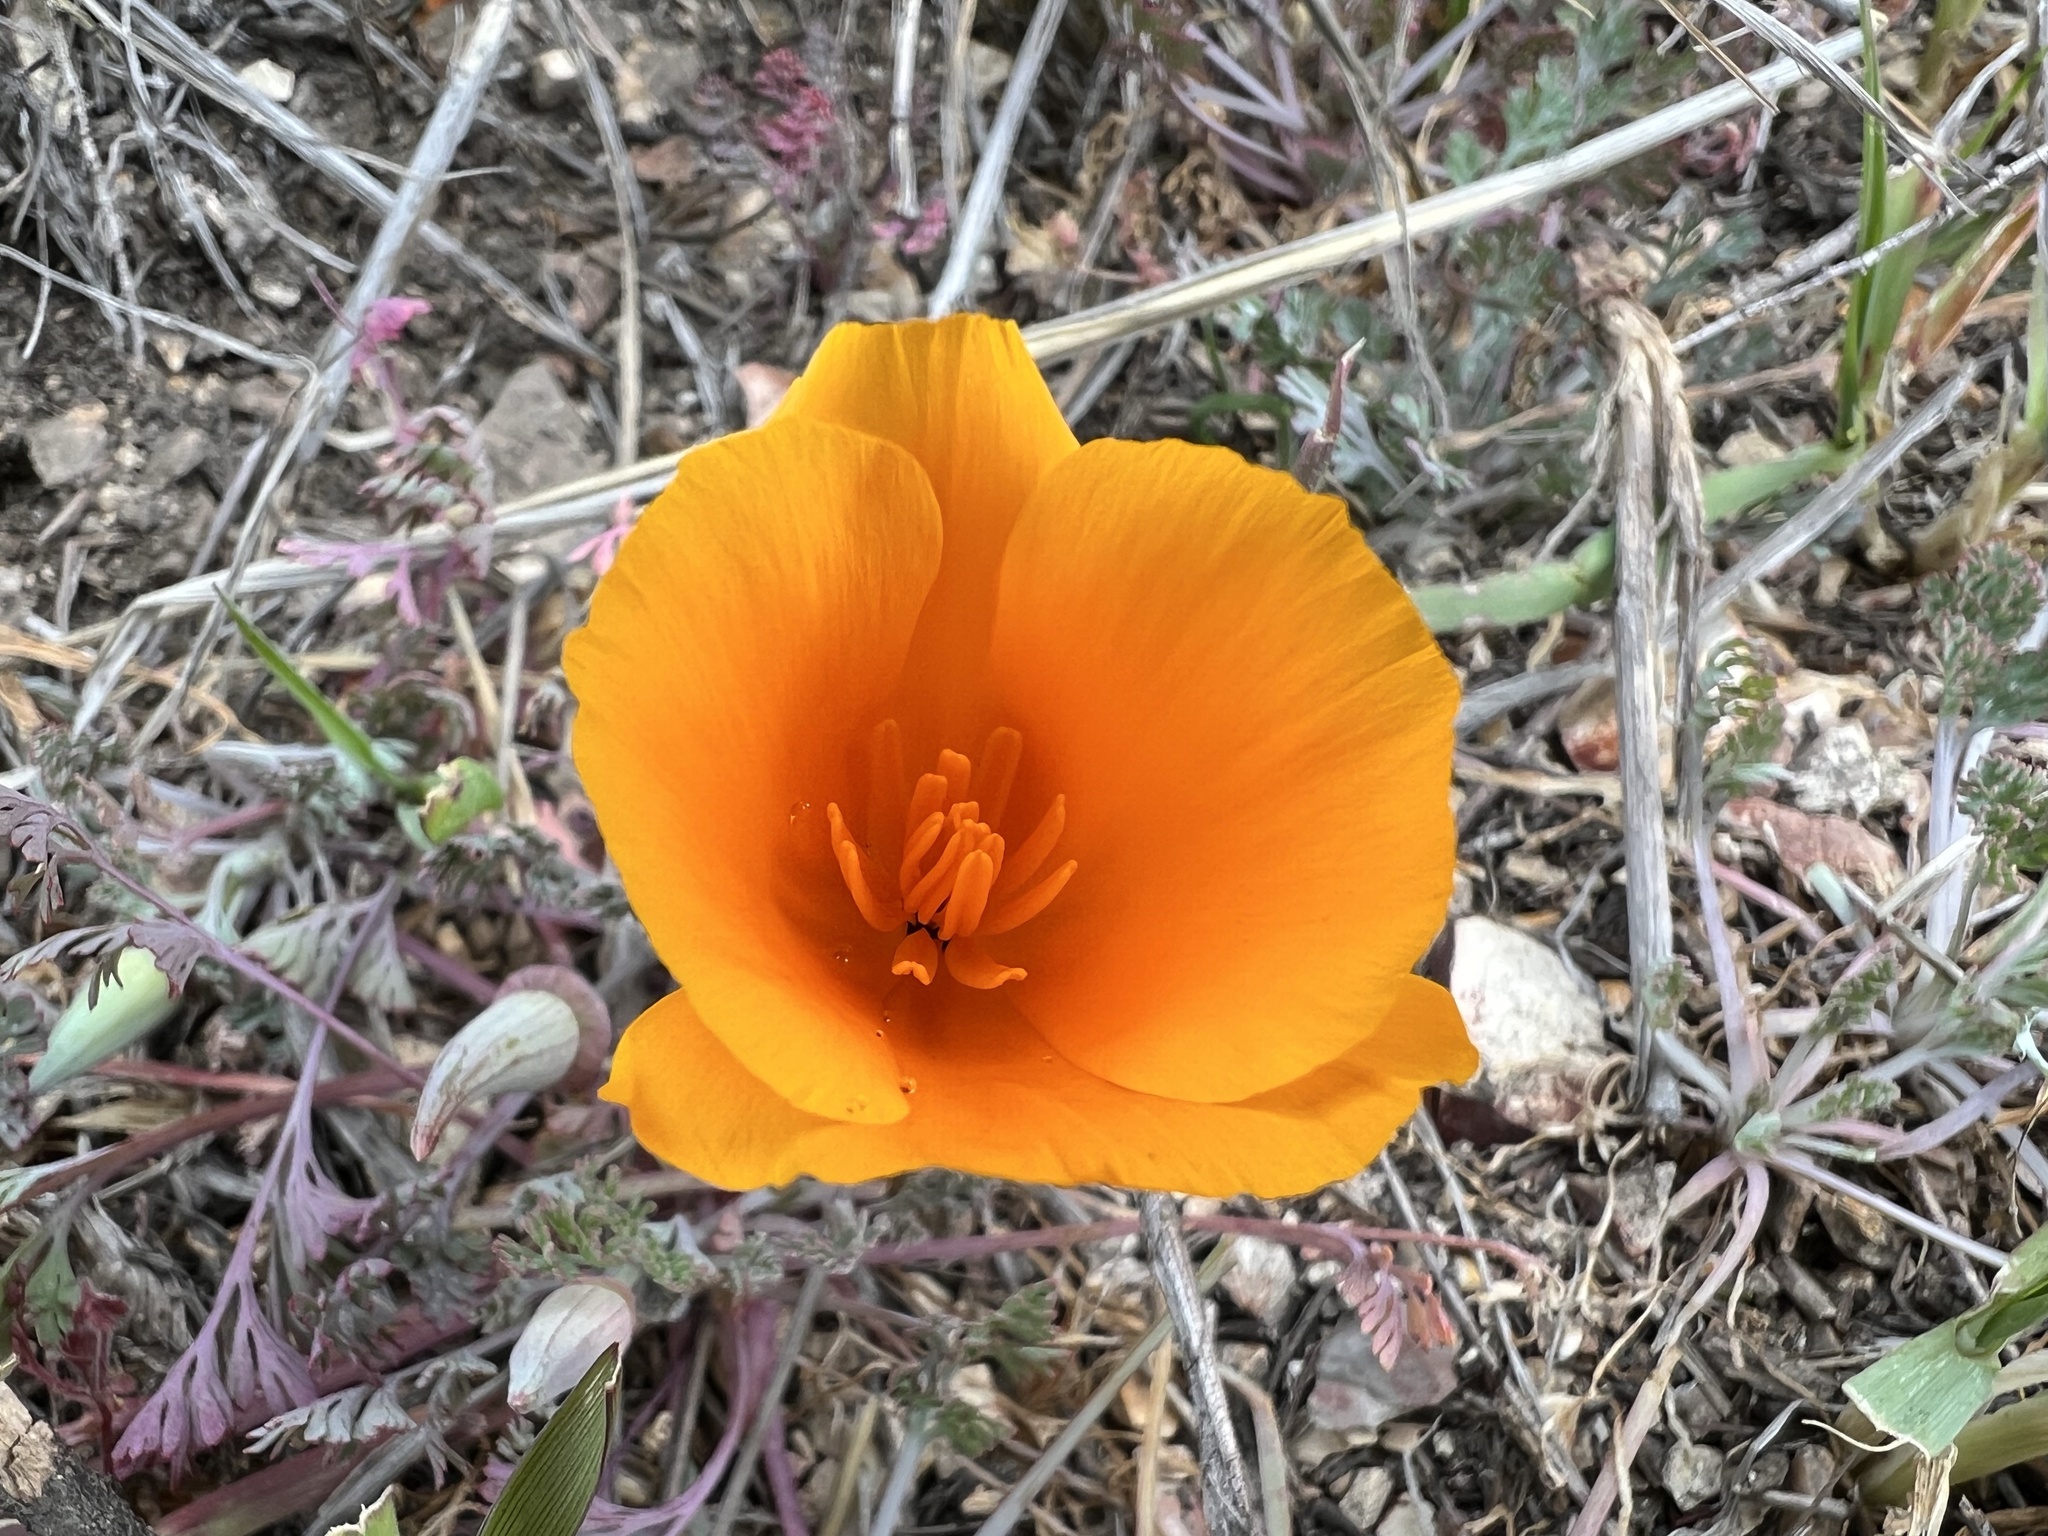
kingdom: Plantae
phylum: Tracheophyta
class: Magnoliopsida
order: Ranunculales
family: Papaveraceae
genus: Eschscholzia
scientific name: Eschscholzia californica
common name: California poppy
